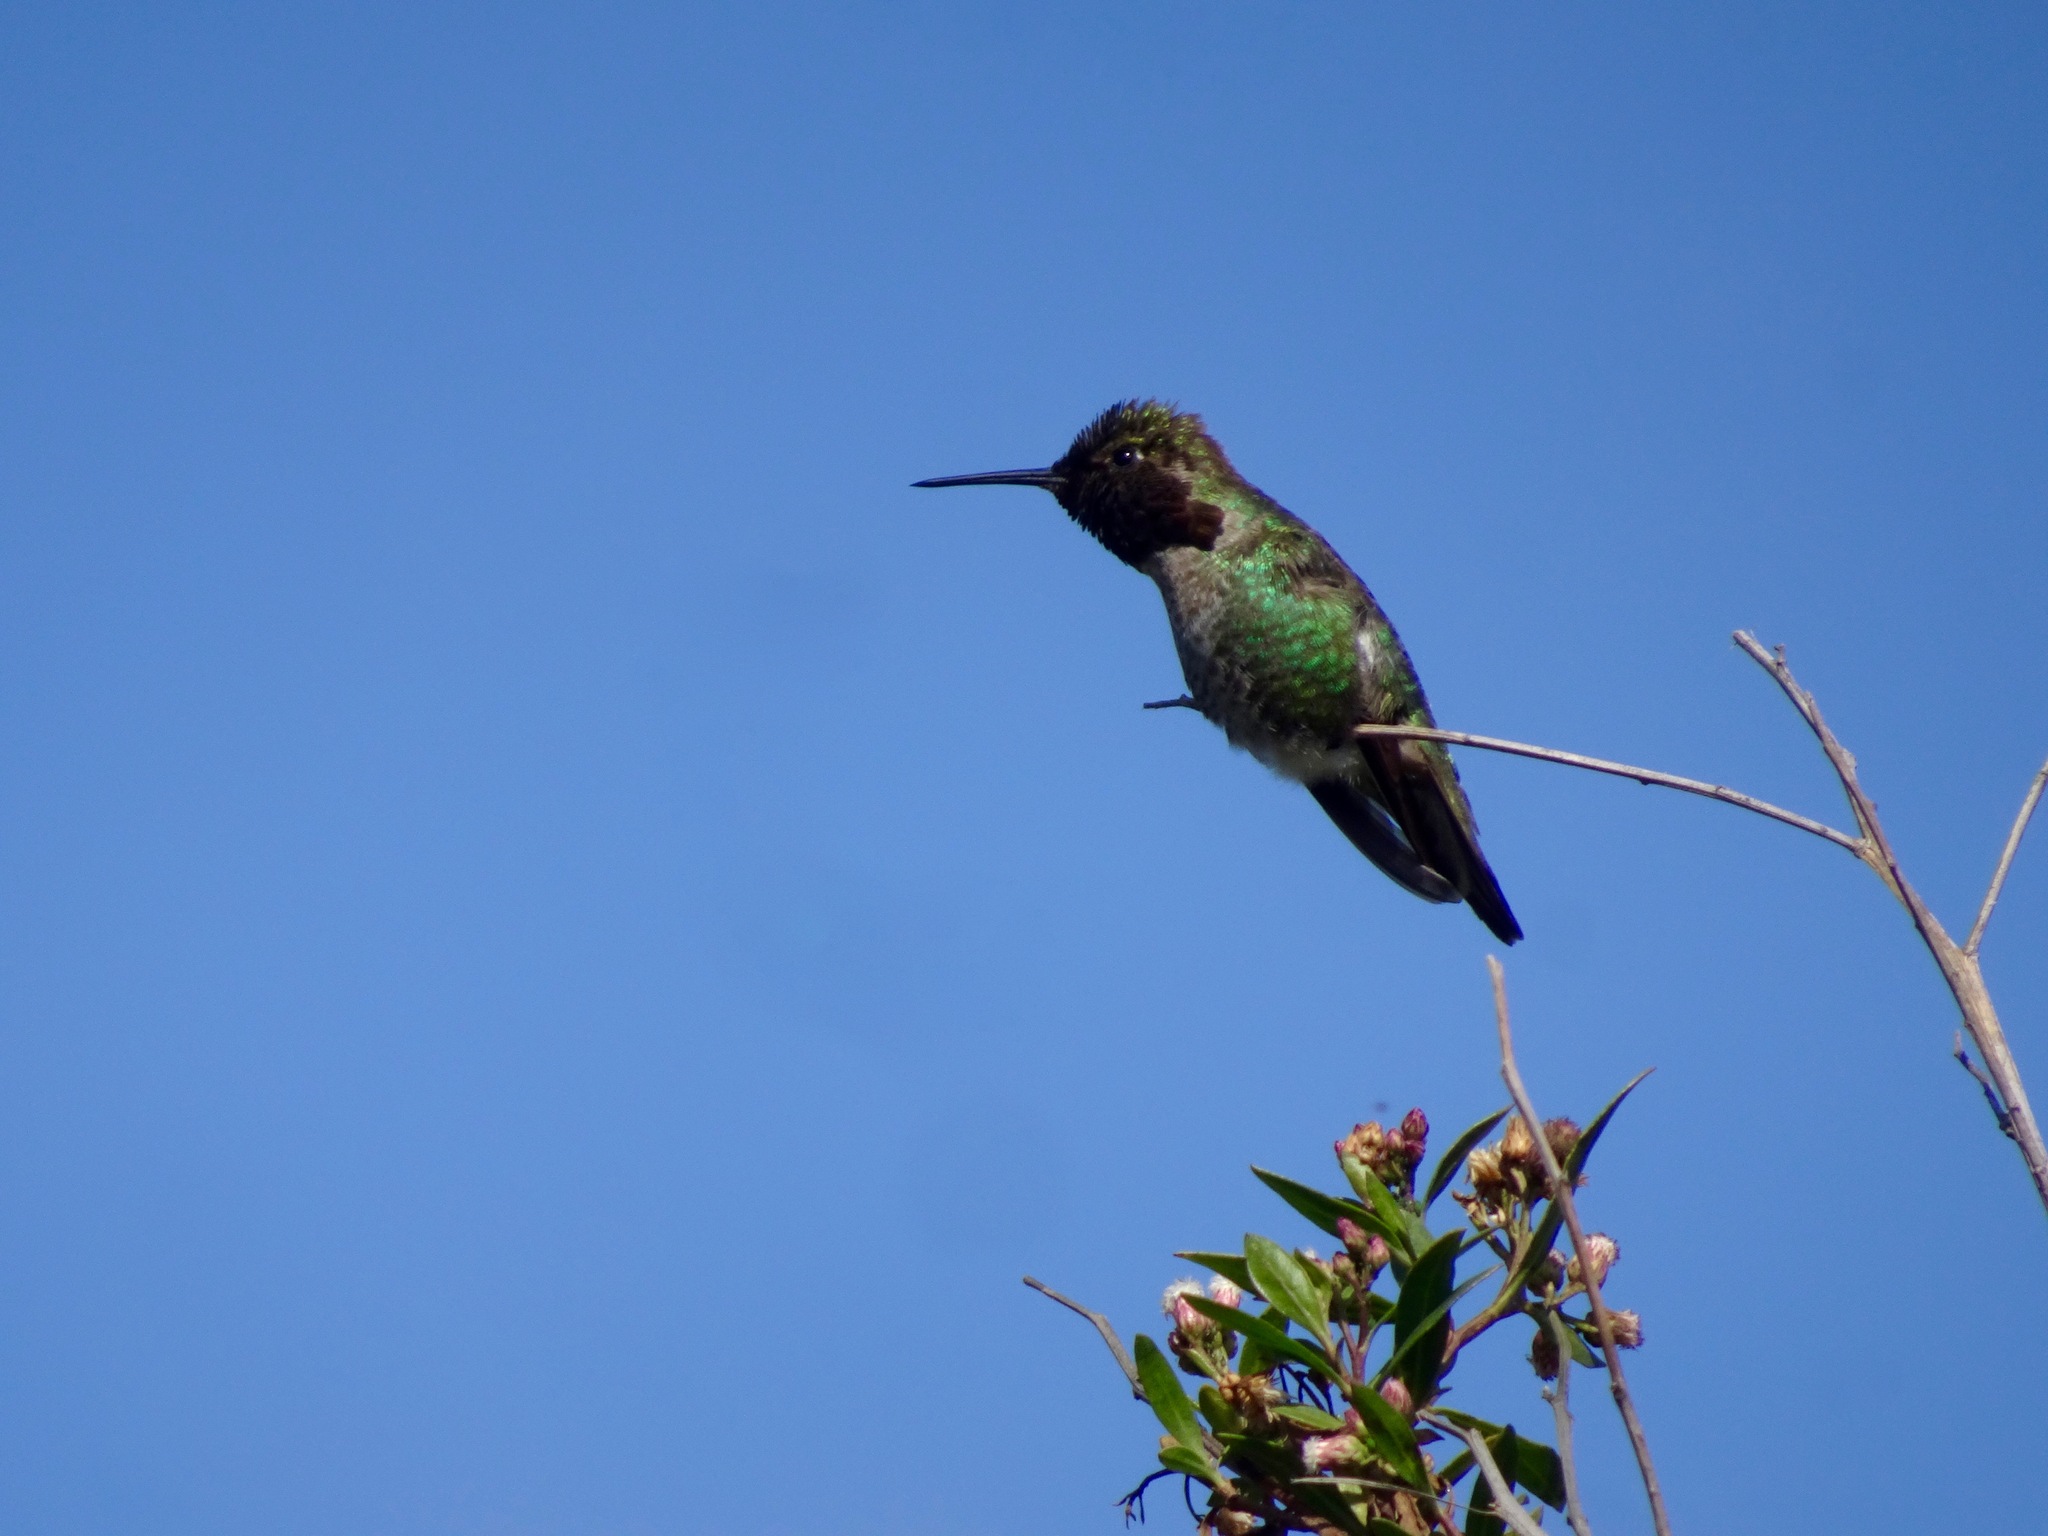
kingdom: Animalia
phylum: Chordata
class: Aves
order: Apodiformes
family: Trochilidae
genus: Calypte
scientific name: Calypte anna
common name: Anna's hummingbird
